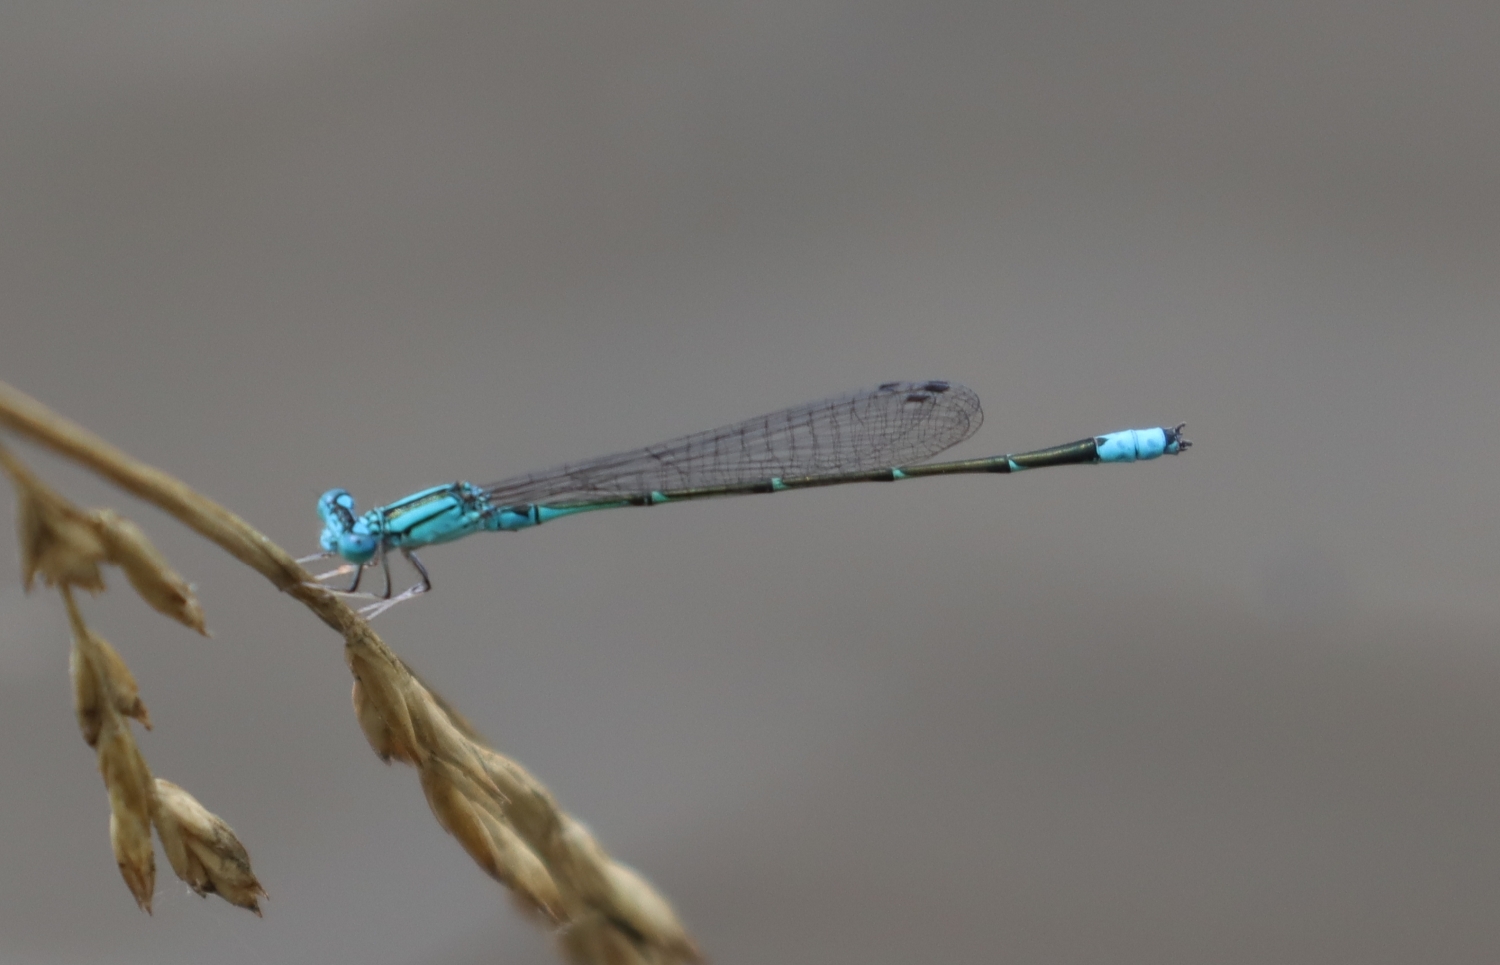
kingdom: Animalia
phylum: Arthropoda
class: Insecta
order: Odonata
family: Coenagrionidae
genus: Enallagma
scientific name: Enallagma traviatum
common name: Slender bluet
